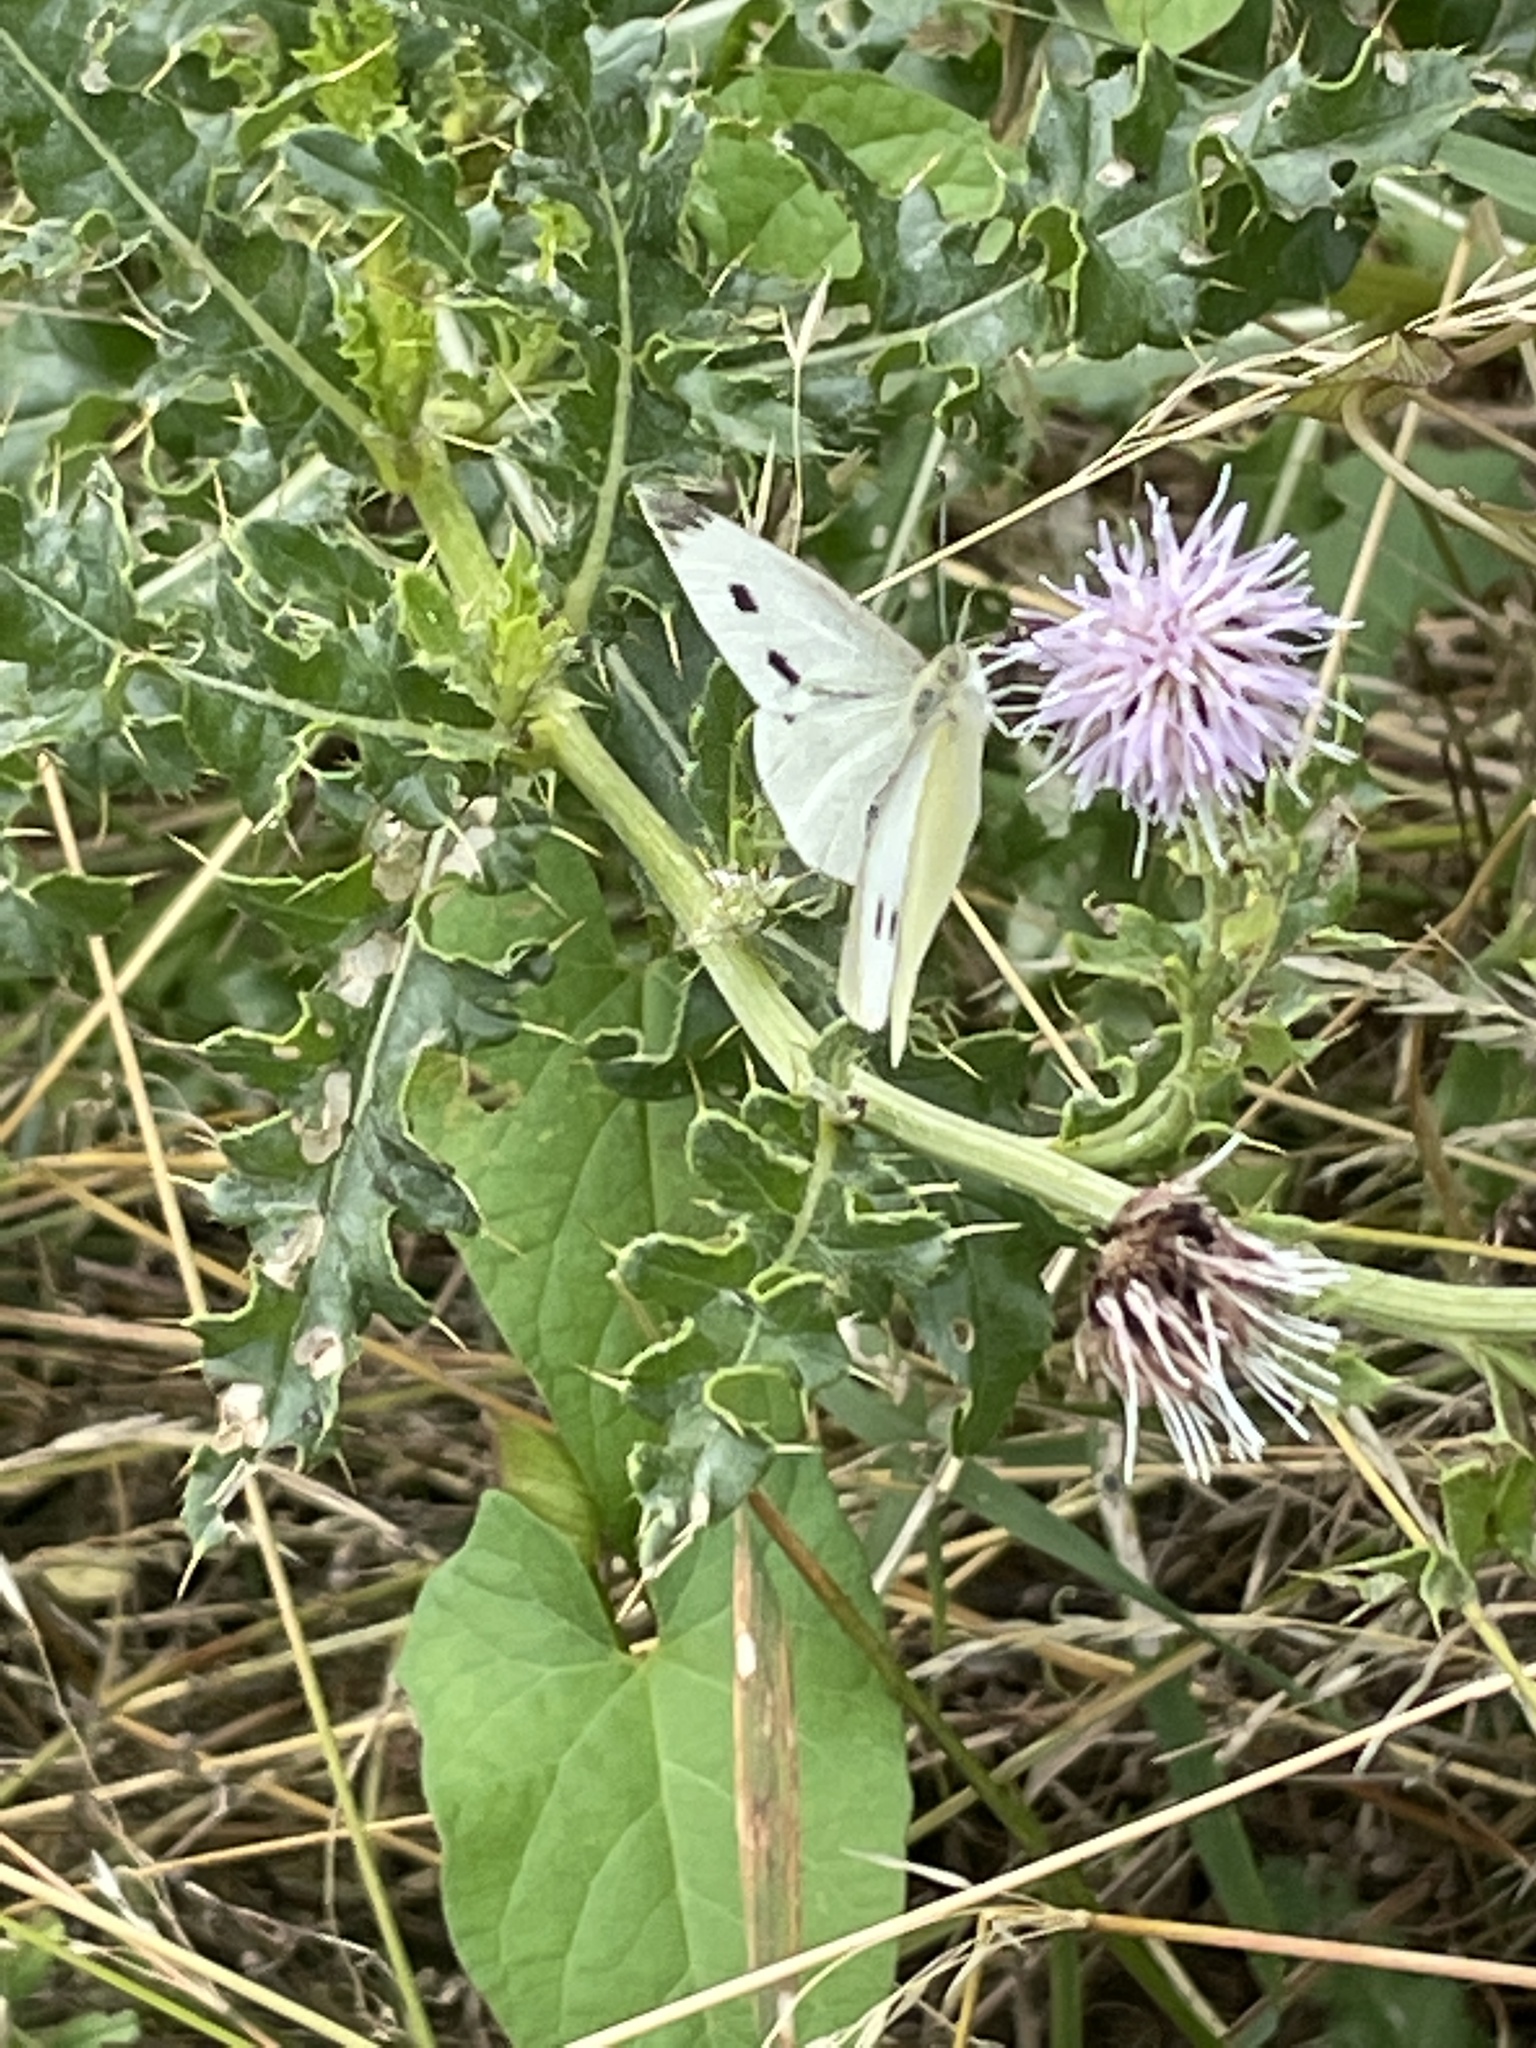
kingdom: Animalia
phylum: Arthropoda
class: Insecta
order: Lepidoptera
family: Pieridae
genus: Pieris
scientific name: Pieris rapae
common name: Small white
